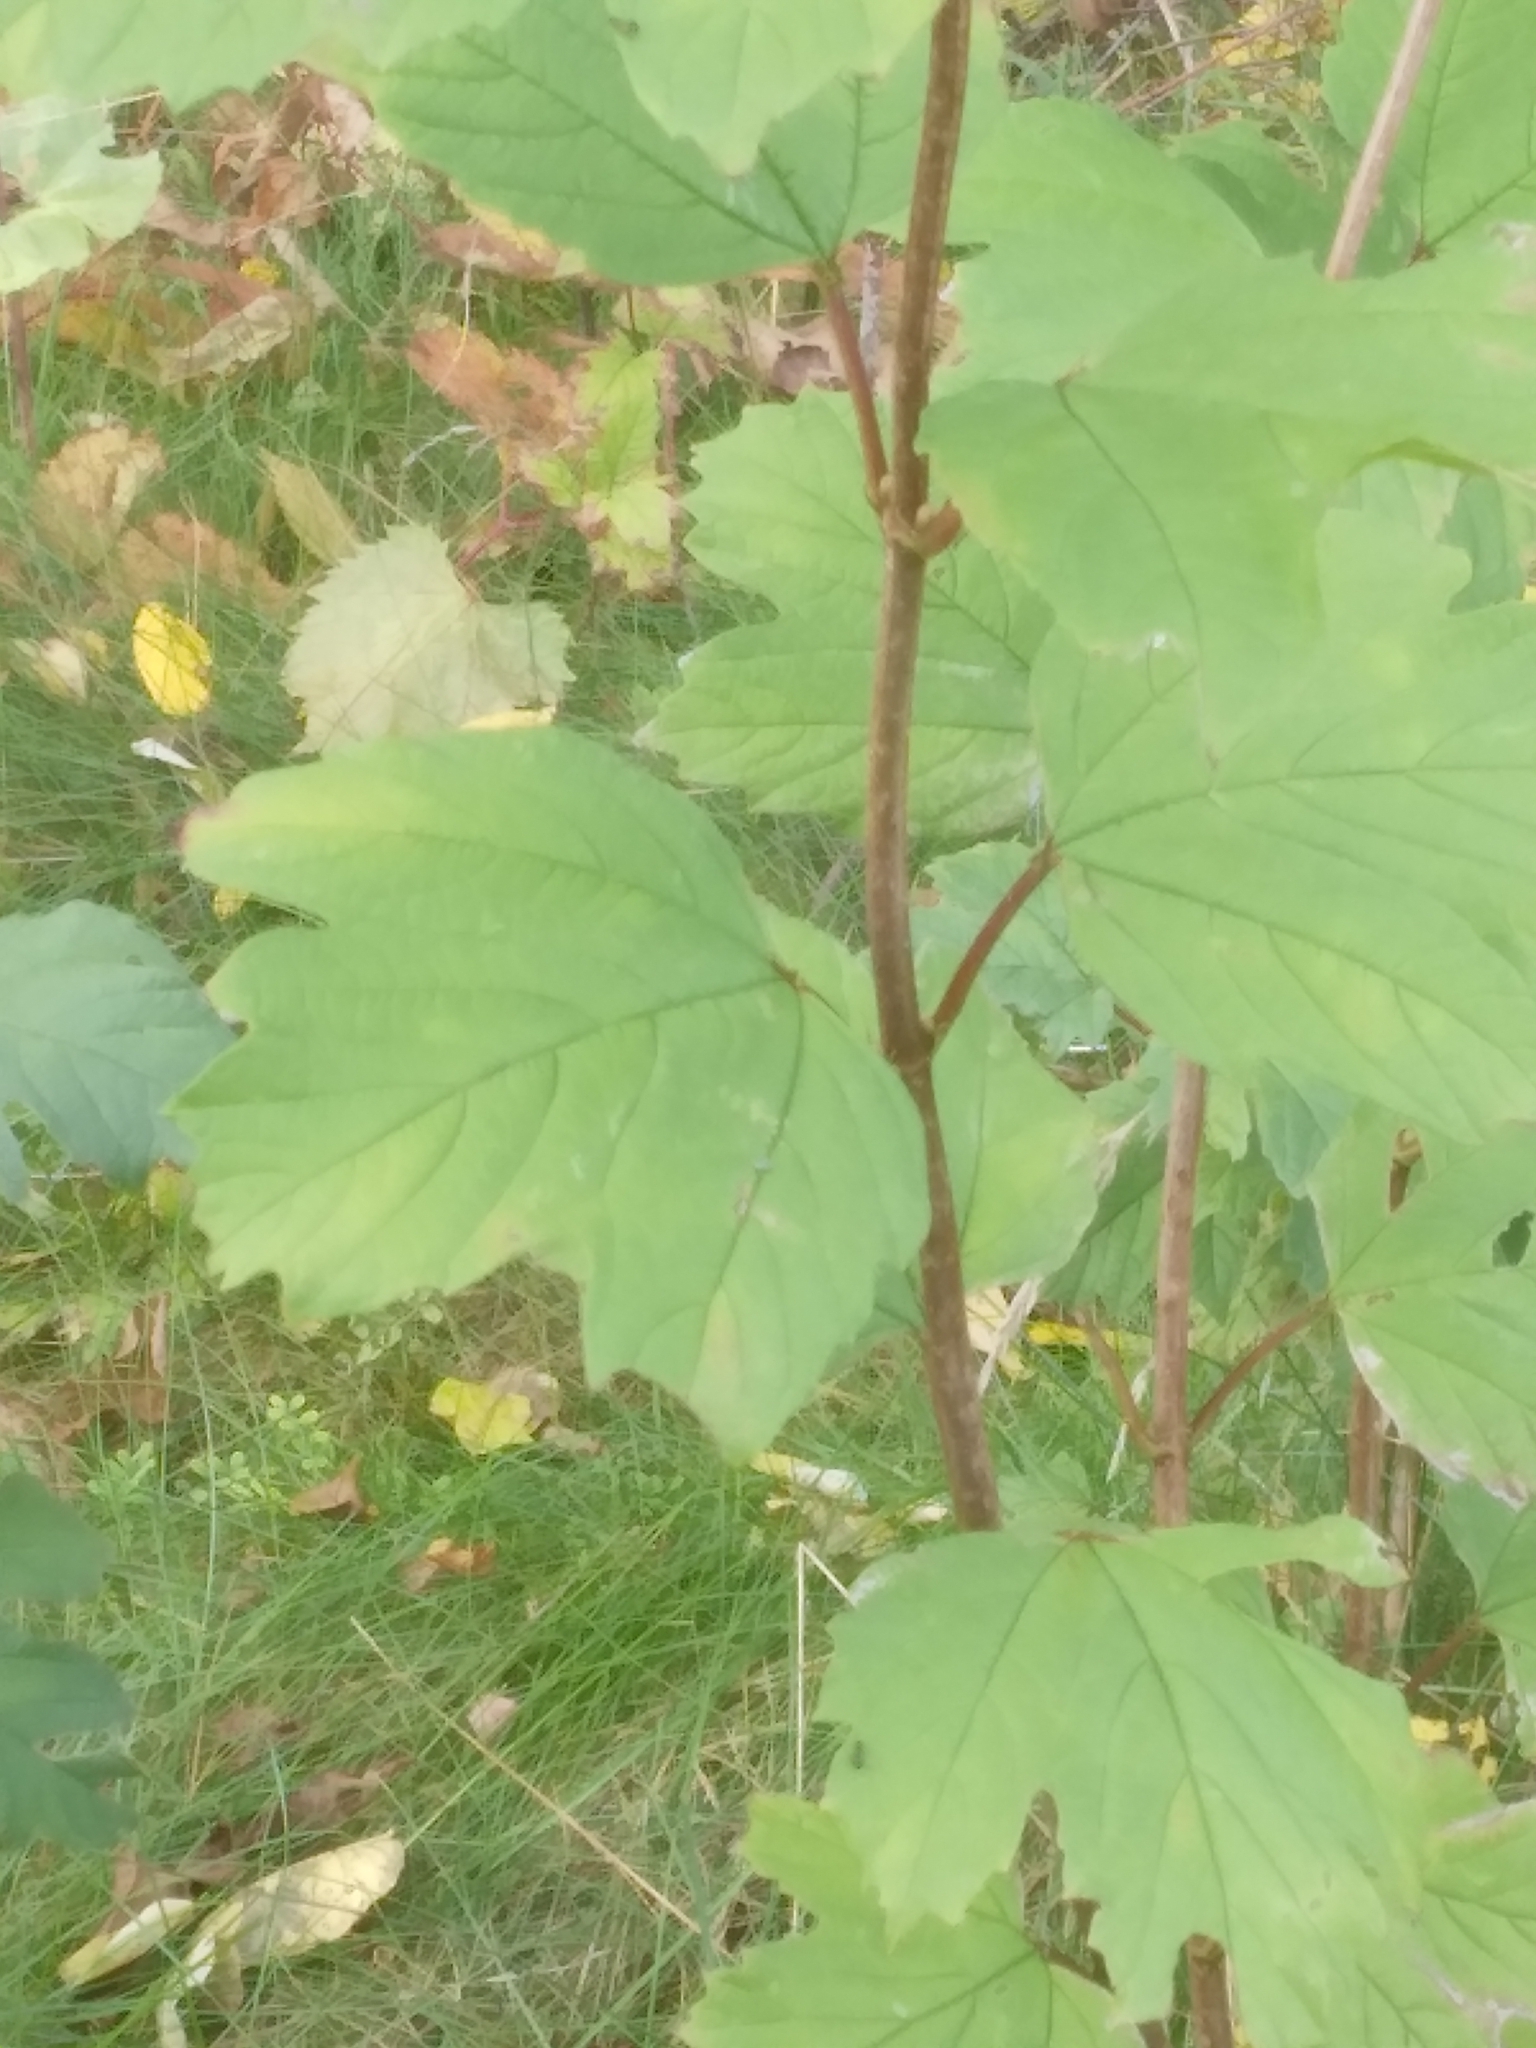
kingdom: Plantae
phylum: Tracheophyta
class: Magnoliopsida
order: Dipsacales
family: Viburnaceae
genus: Viburnum
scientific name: Viburnum acerifolium
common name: Dockmackie
